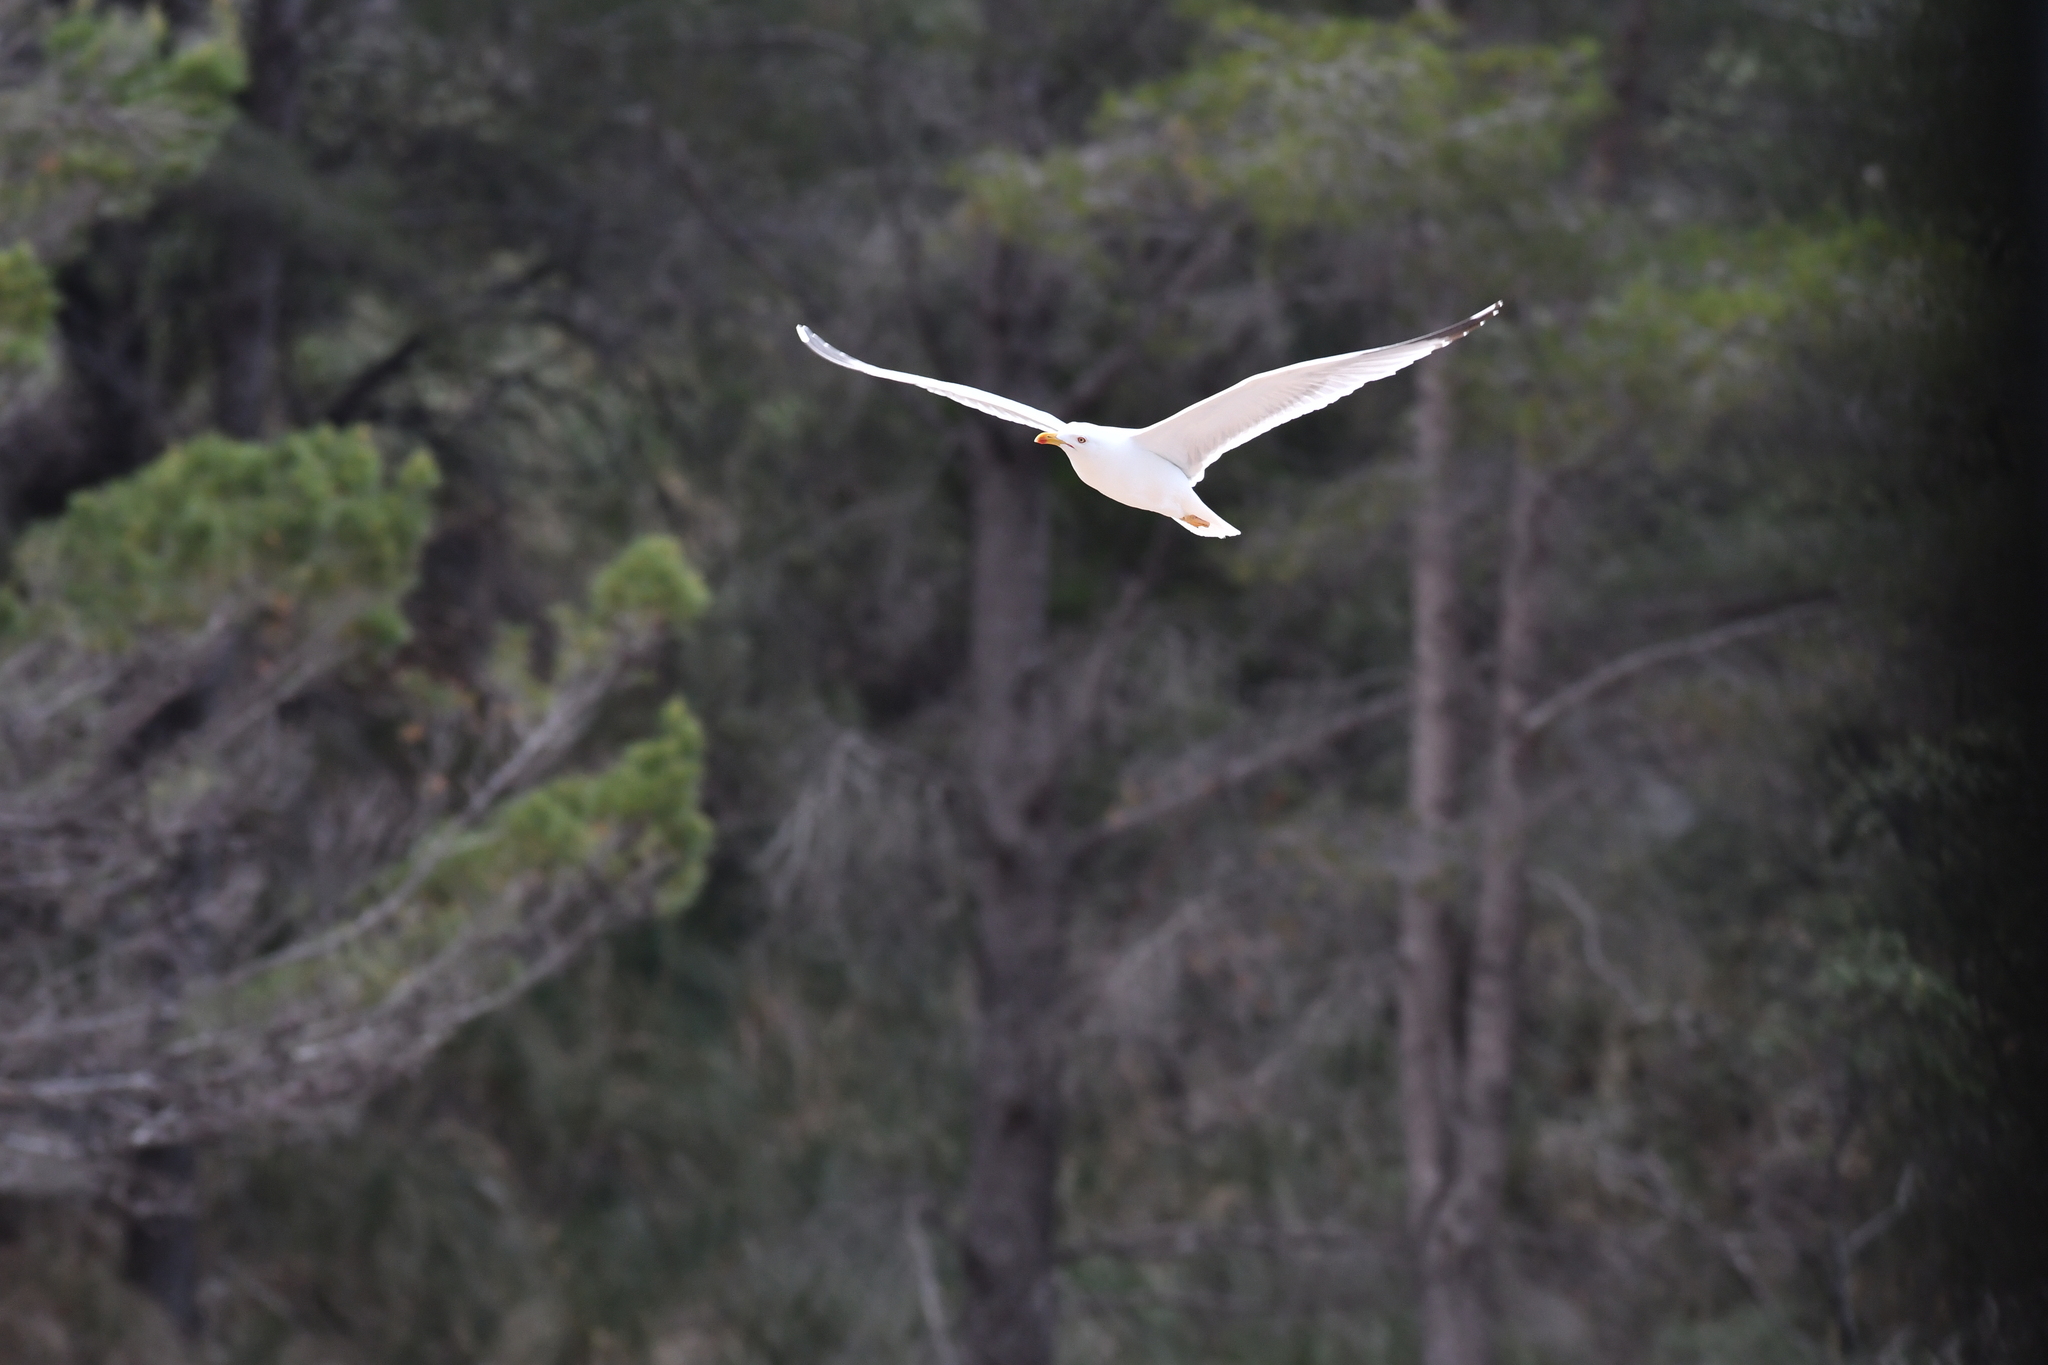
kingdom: Animalia
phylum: Chordata
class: Aves
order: Charadriiformes
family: Laridae
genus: Larus
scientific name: Larus michahellis
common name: Yellow-legged gull
